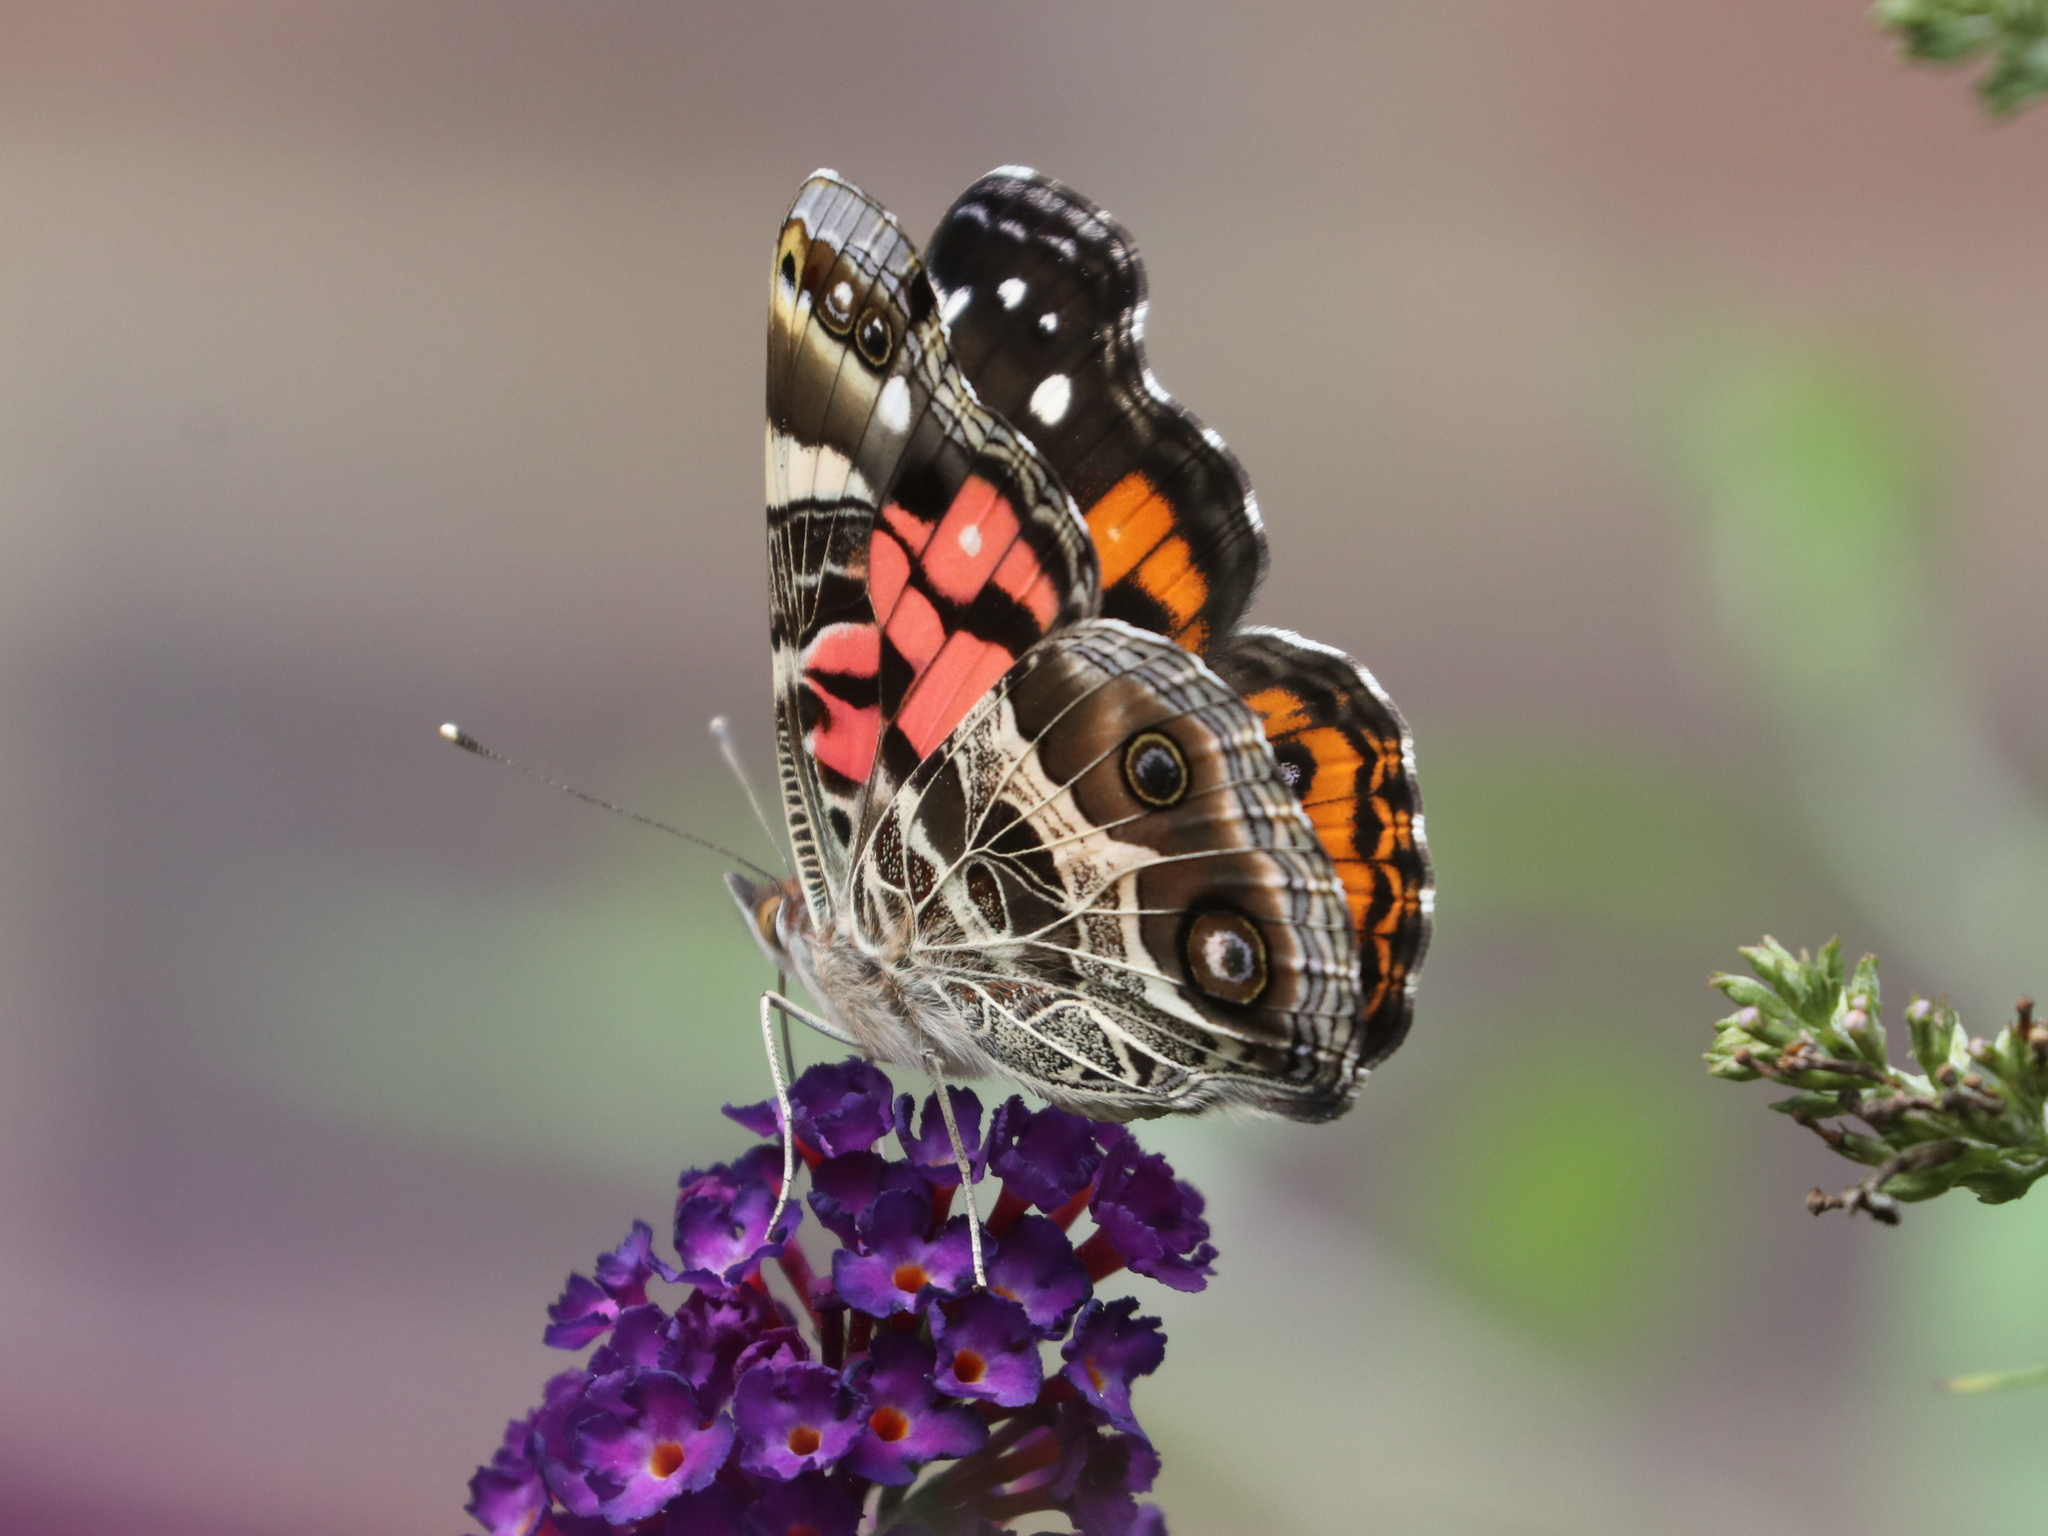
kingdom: Animalia
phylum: Arthropoda
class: Insecta
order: Lepidoptera
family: Nymphalidae
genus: Vanessa
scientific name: Vanessa virginiensis
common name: American lady
